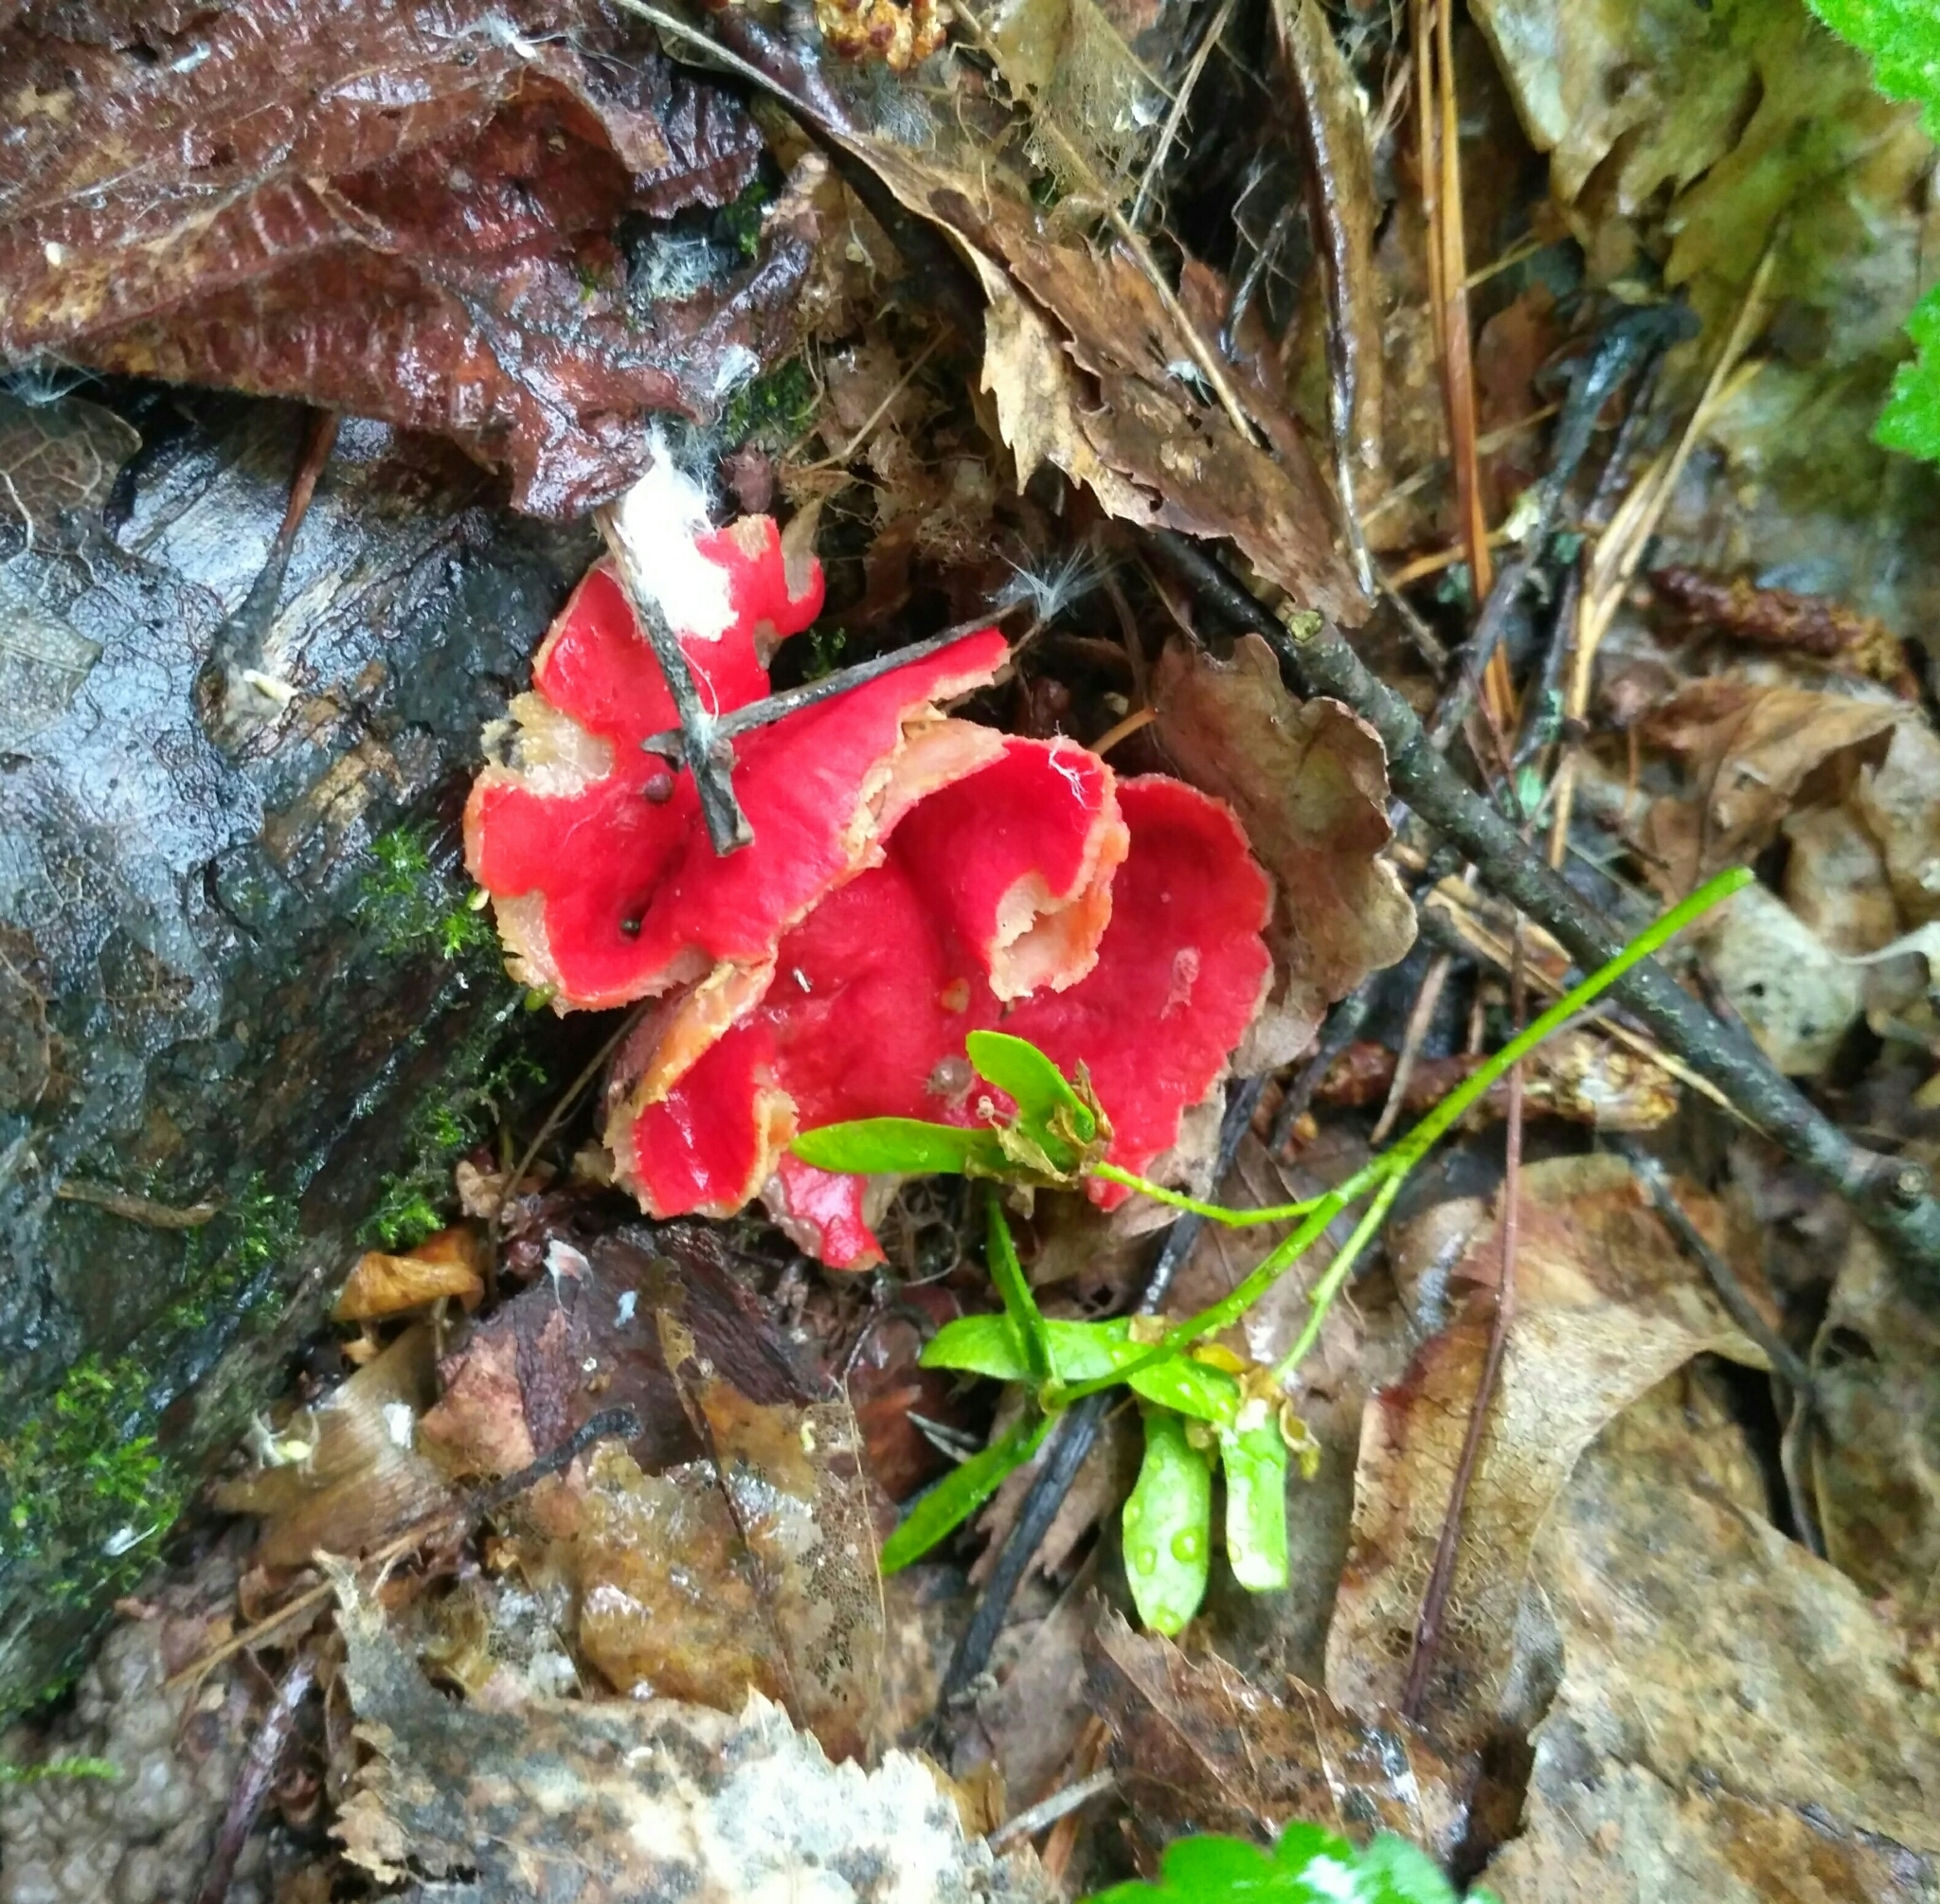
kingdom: Fungi
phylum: Ascomycota
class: Pezizomycetes
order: Pezizales
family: Sarcoscyphaceae
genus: Sarcoscypha
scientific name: Sarcoscypha
